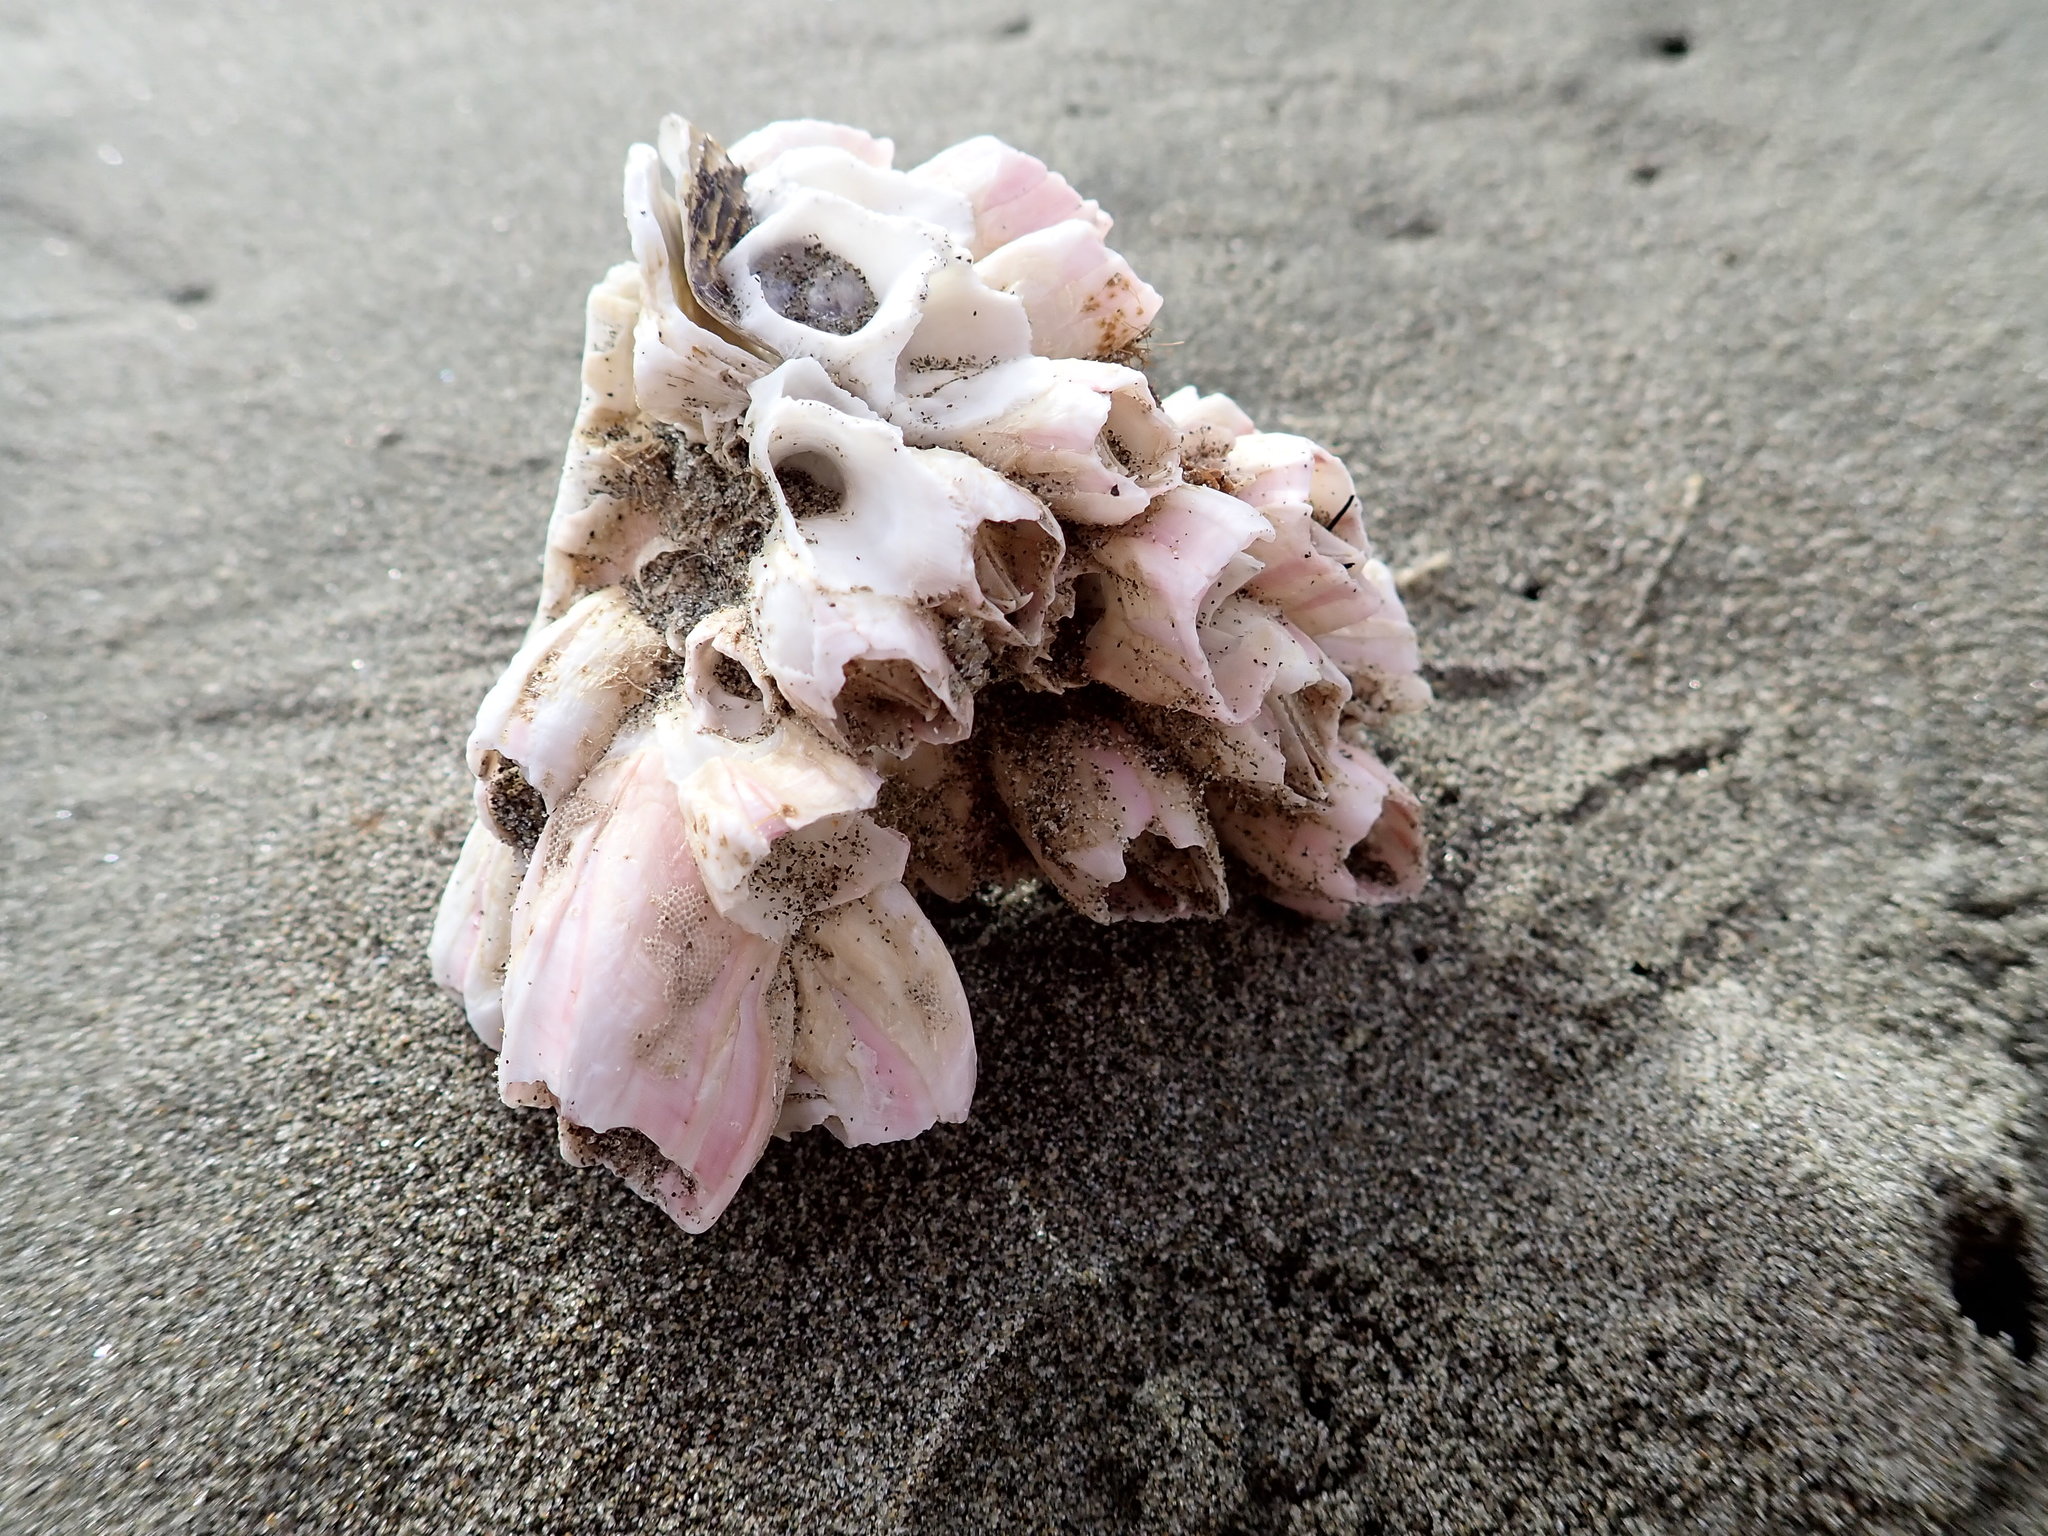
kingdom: Animalia
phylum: Arthropoda
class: Maxillopoda
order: Sessilia
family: Balanidae
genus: Notomegabalanus
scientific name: Notomegabalanus decorus
